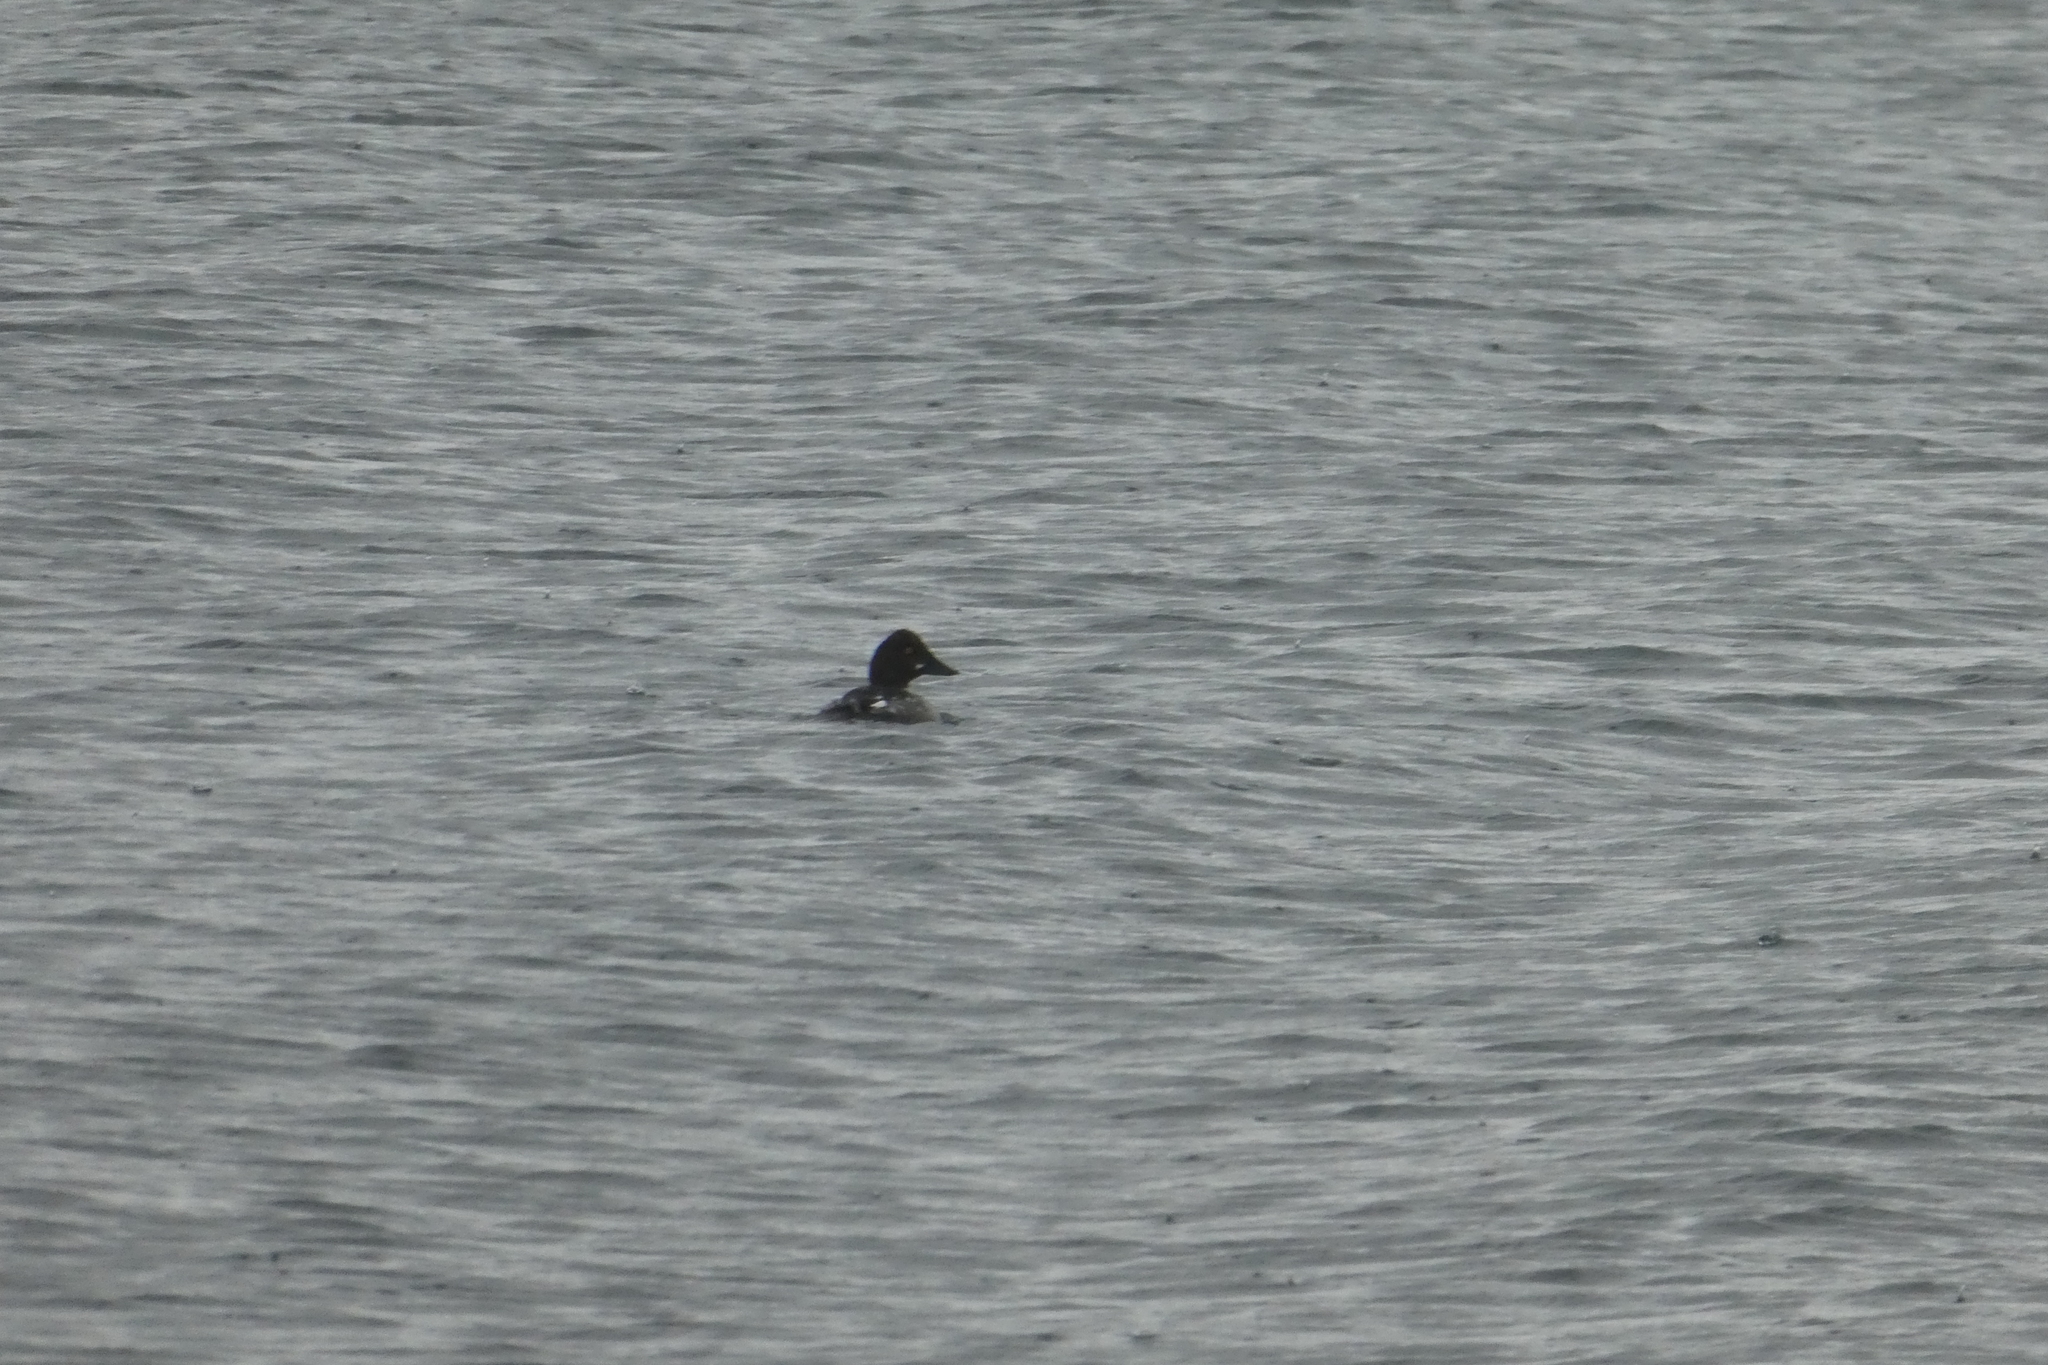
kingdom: Animalia
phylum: Chordata
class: Aves
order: Anseriformes
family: Anatidae
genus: Bucephala
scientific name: Bucephala clangula
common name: Common goldeneye
